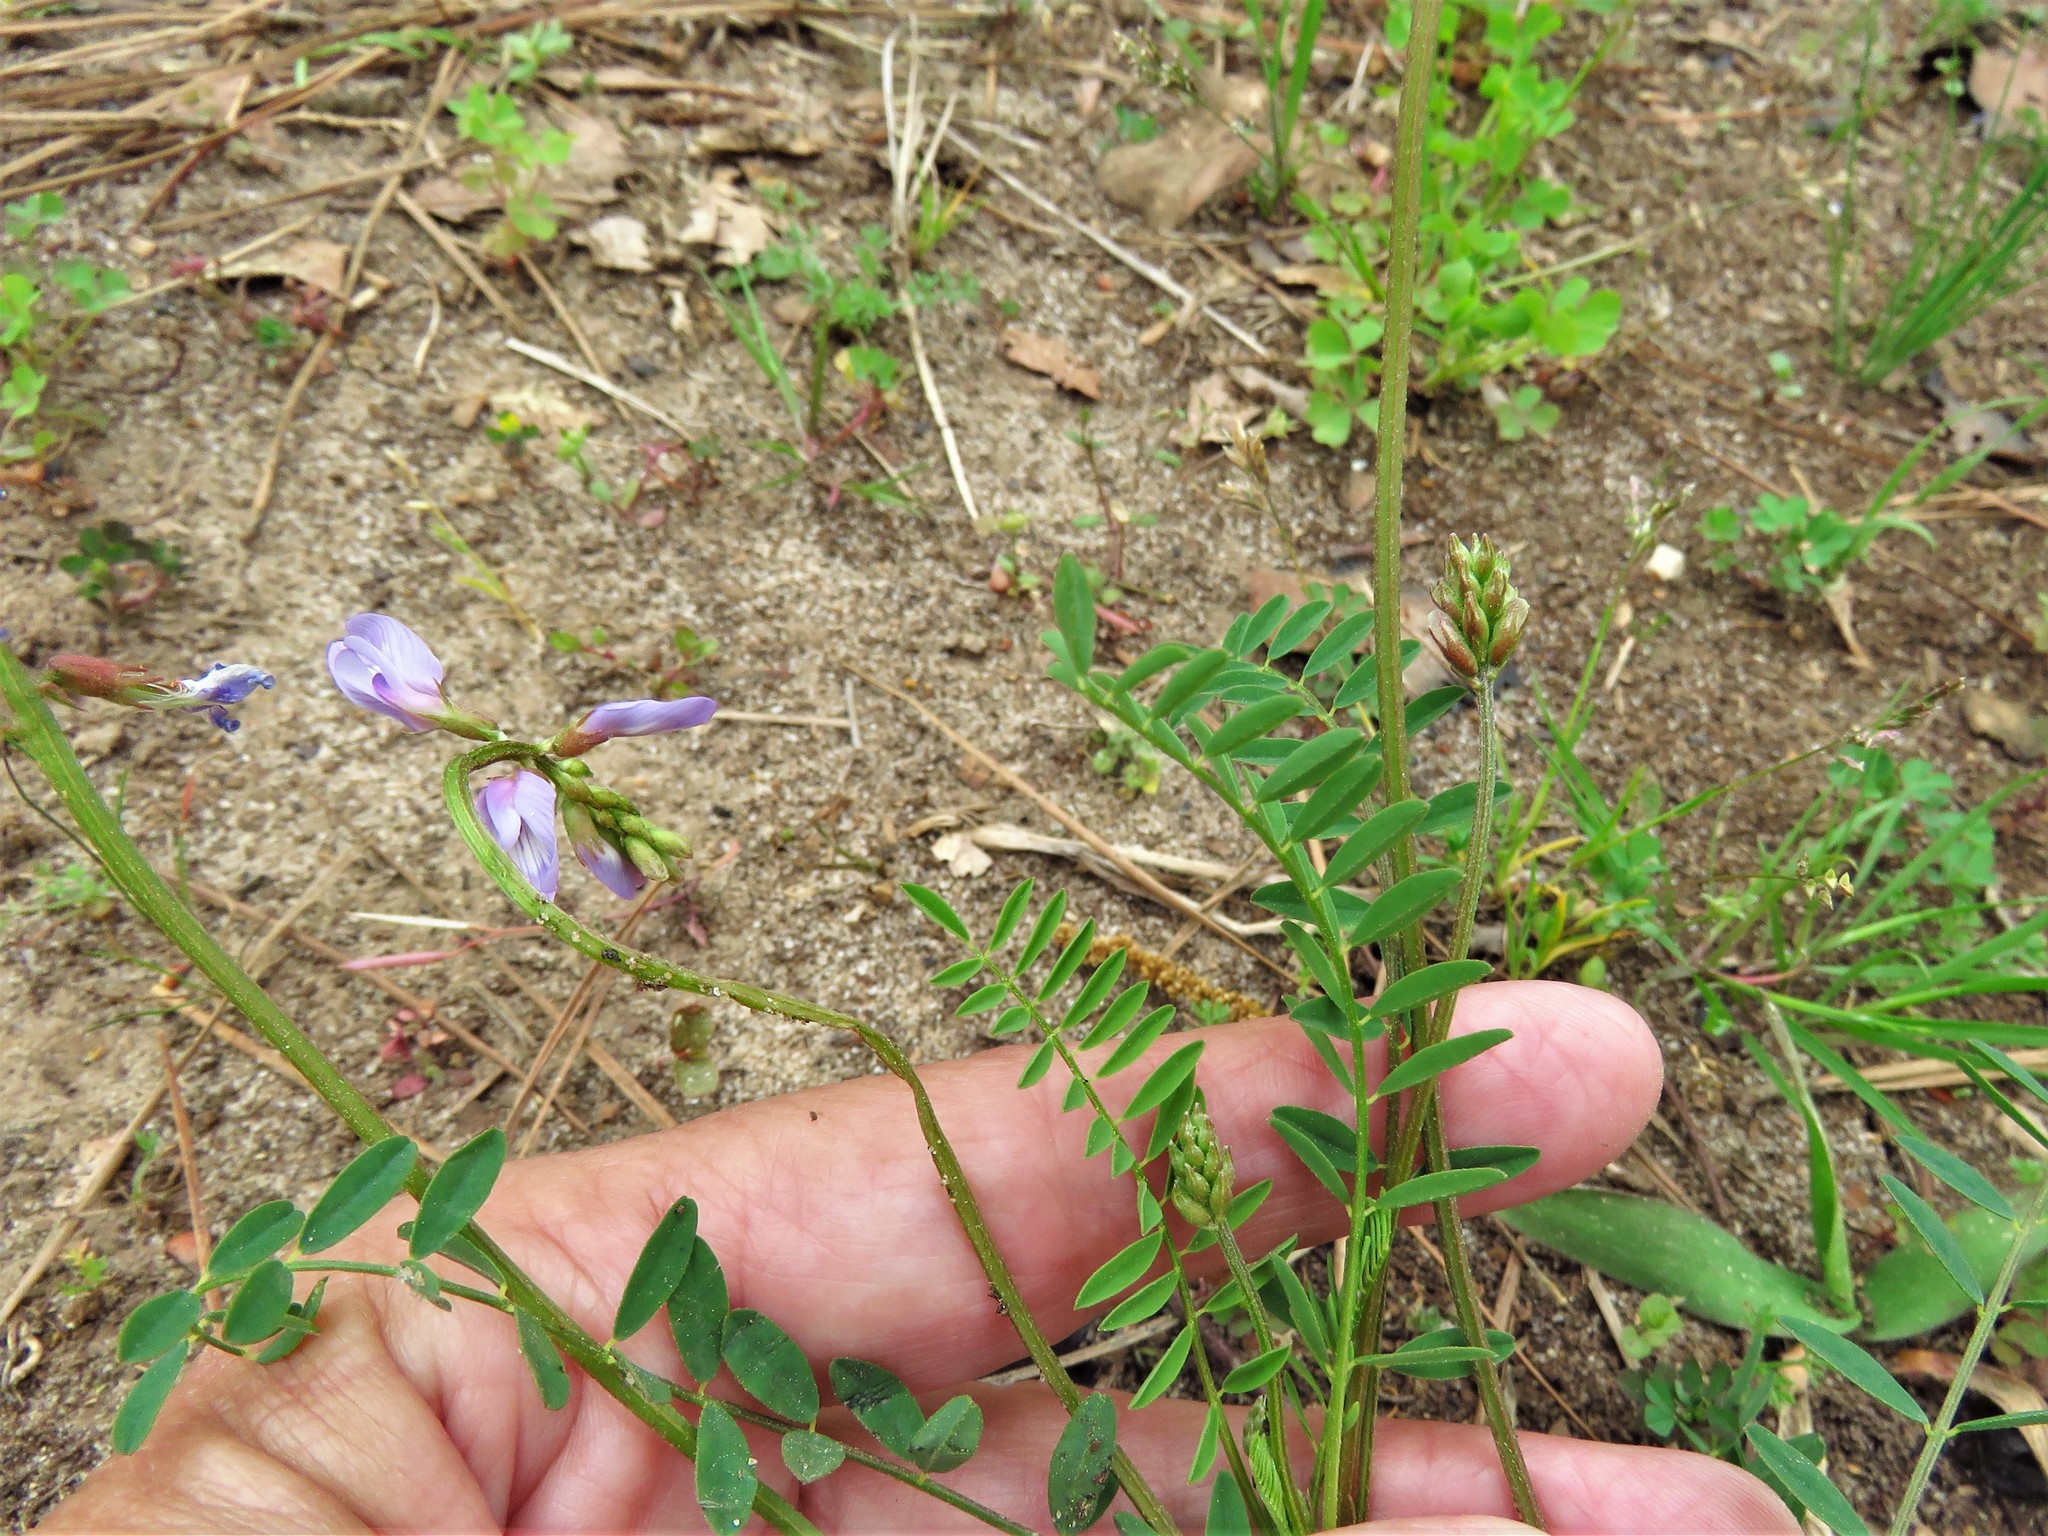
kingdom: Plantae
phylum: Tracheophyta
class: Magnoliopsida
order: Fabales
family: Fabaceae
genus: Astragalus
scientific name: Astragalus distortus
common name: Ozark milk-vetch
